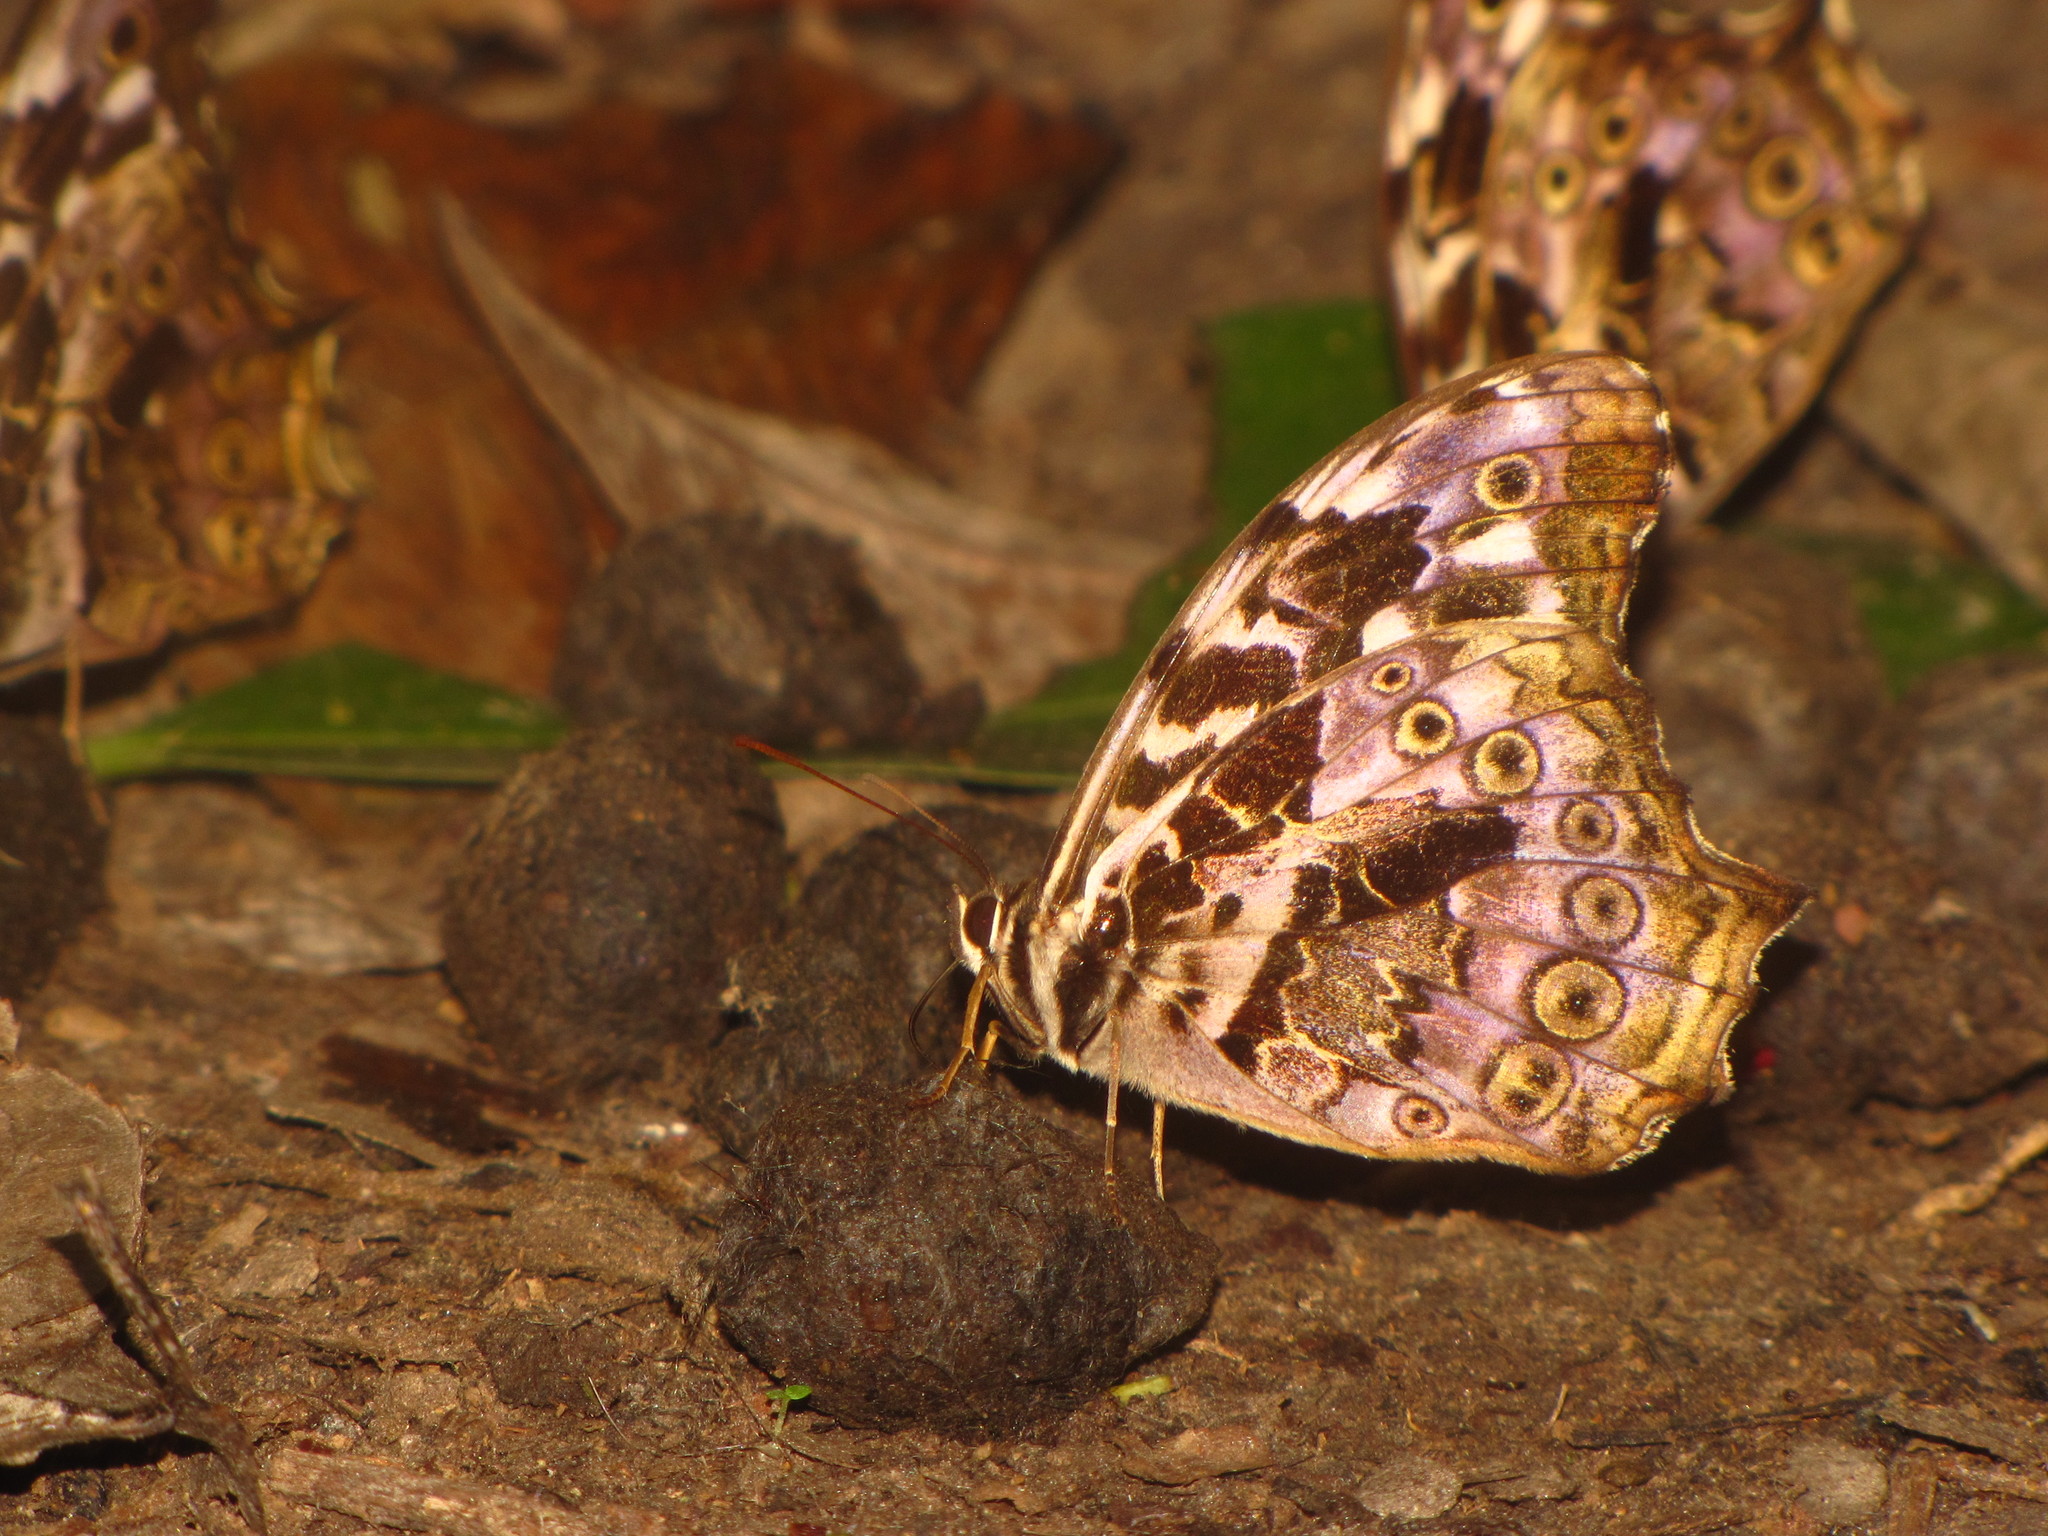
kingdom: Animalia
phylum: Arthropoda
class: Insecta
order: Lepidoptera
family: Nymphalidae
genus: Neope
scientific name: Neope bhadra
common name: Tailed labyrinth
